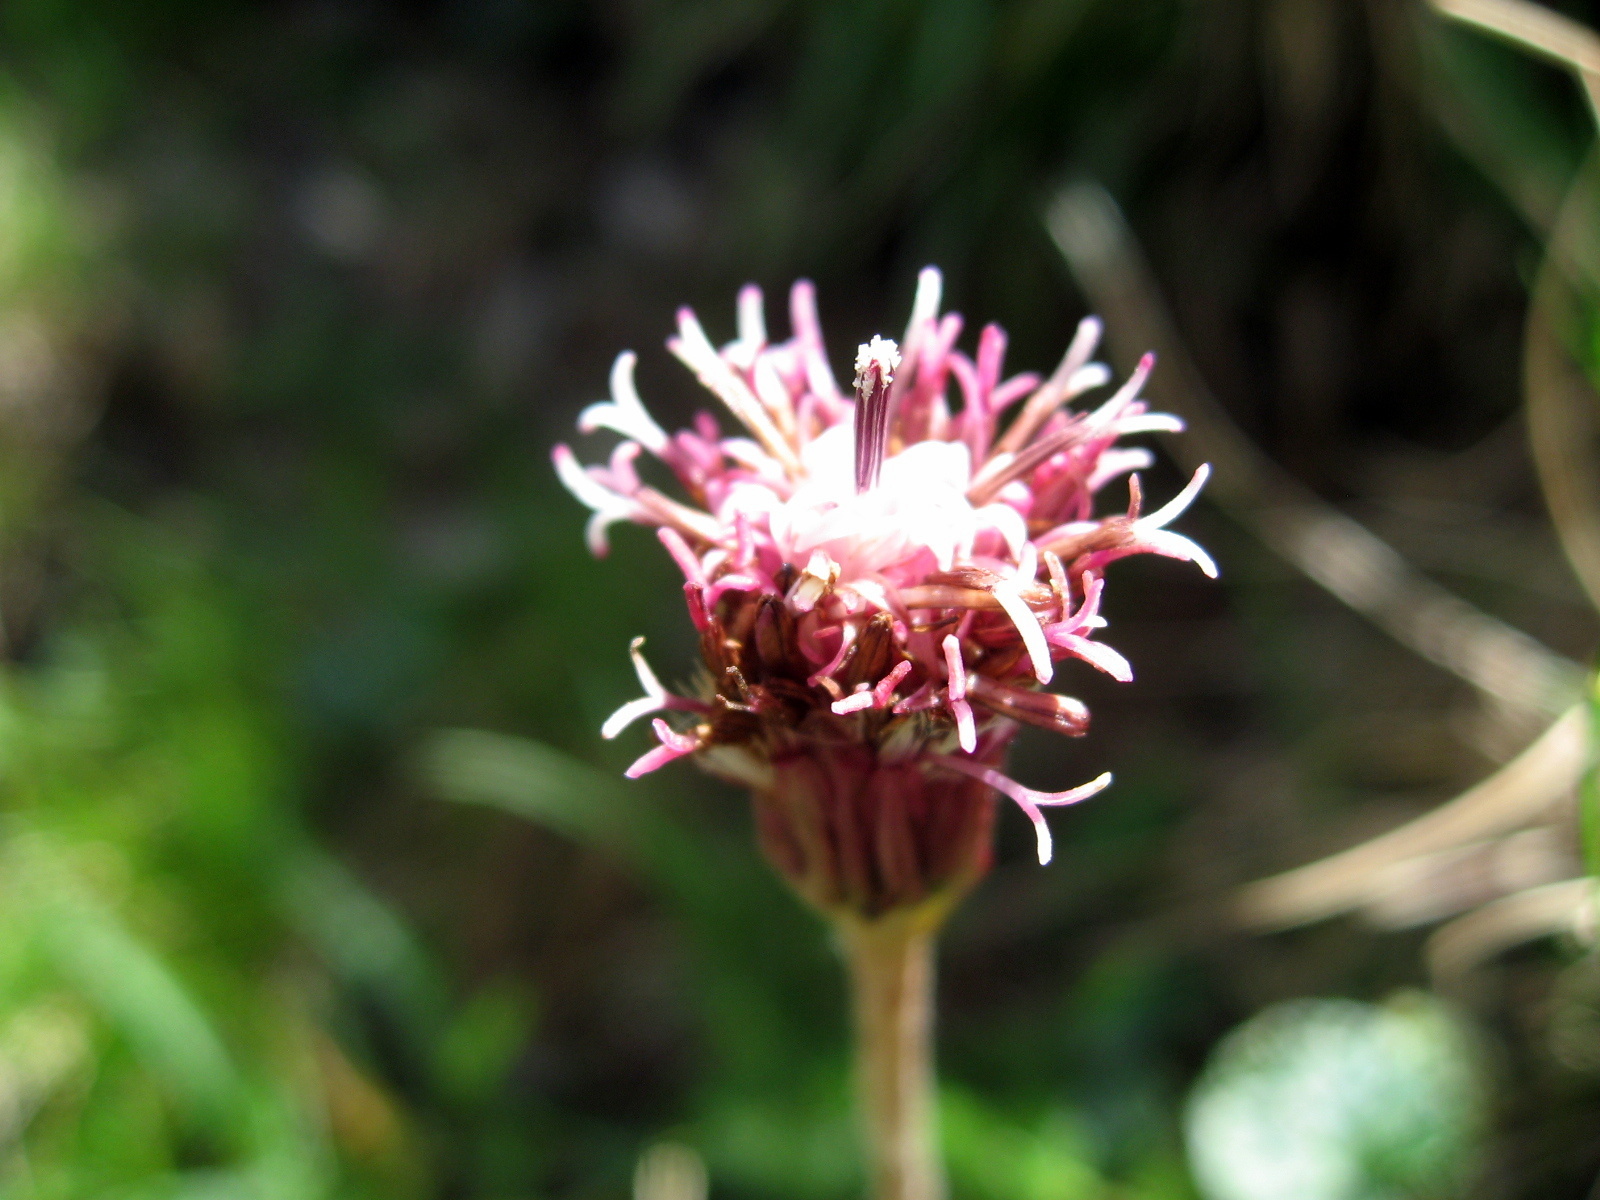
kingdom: Plantae
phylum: Tracheophyta
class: Magnoliopsida
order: Asterales
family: Asteraceae
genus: Homogyne
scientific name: Homogyne alpina
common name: Purple colt's-foot
